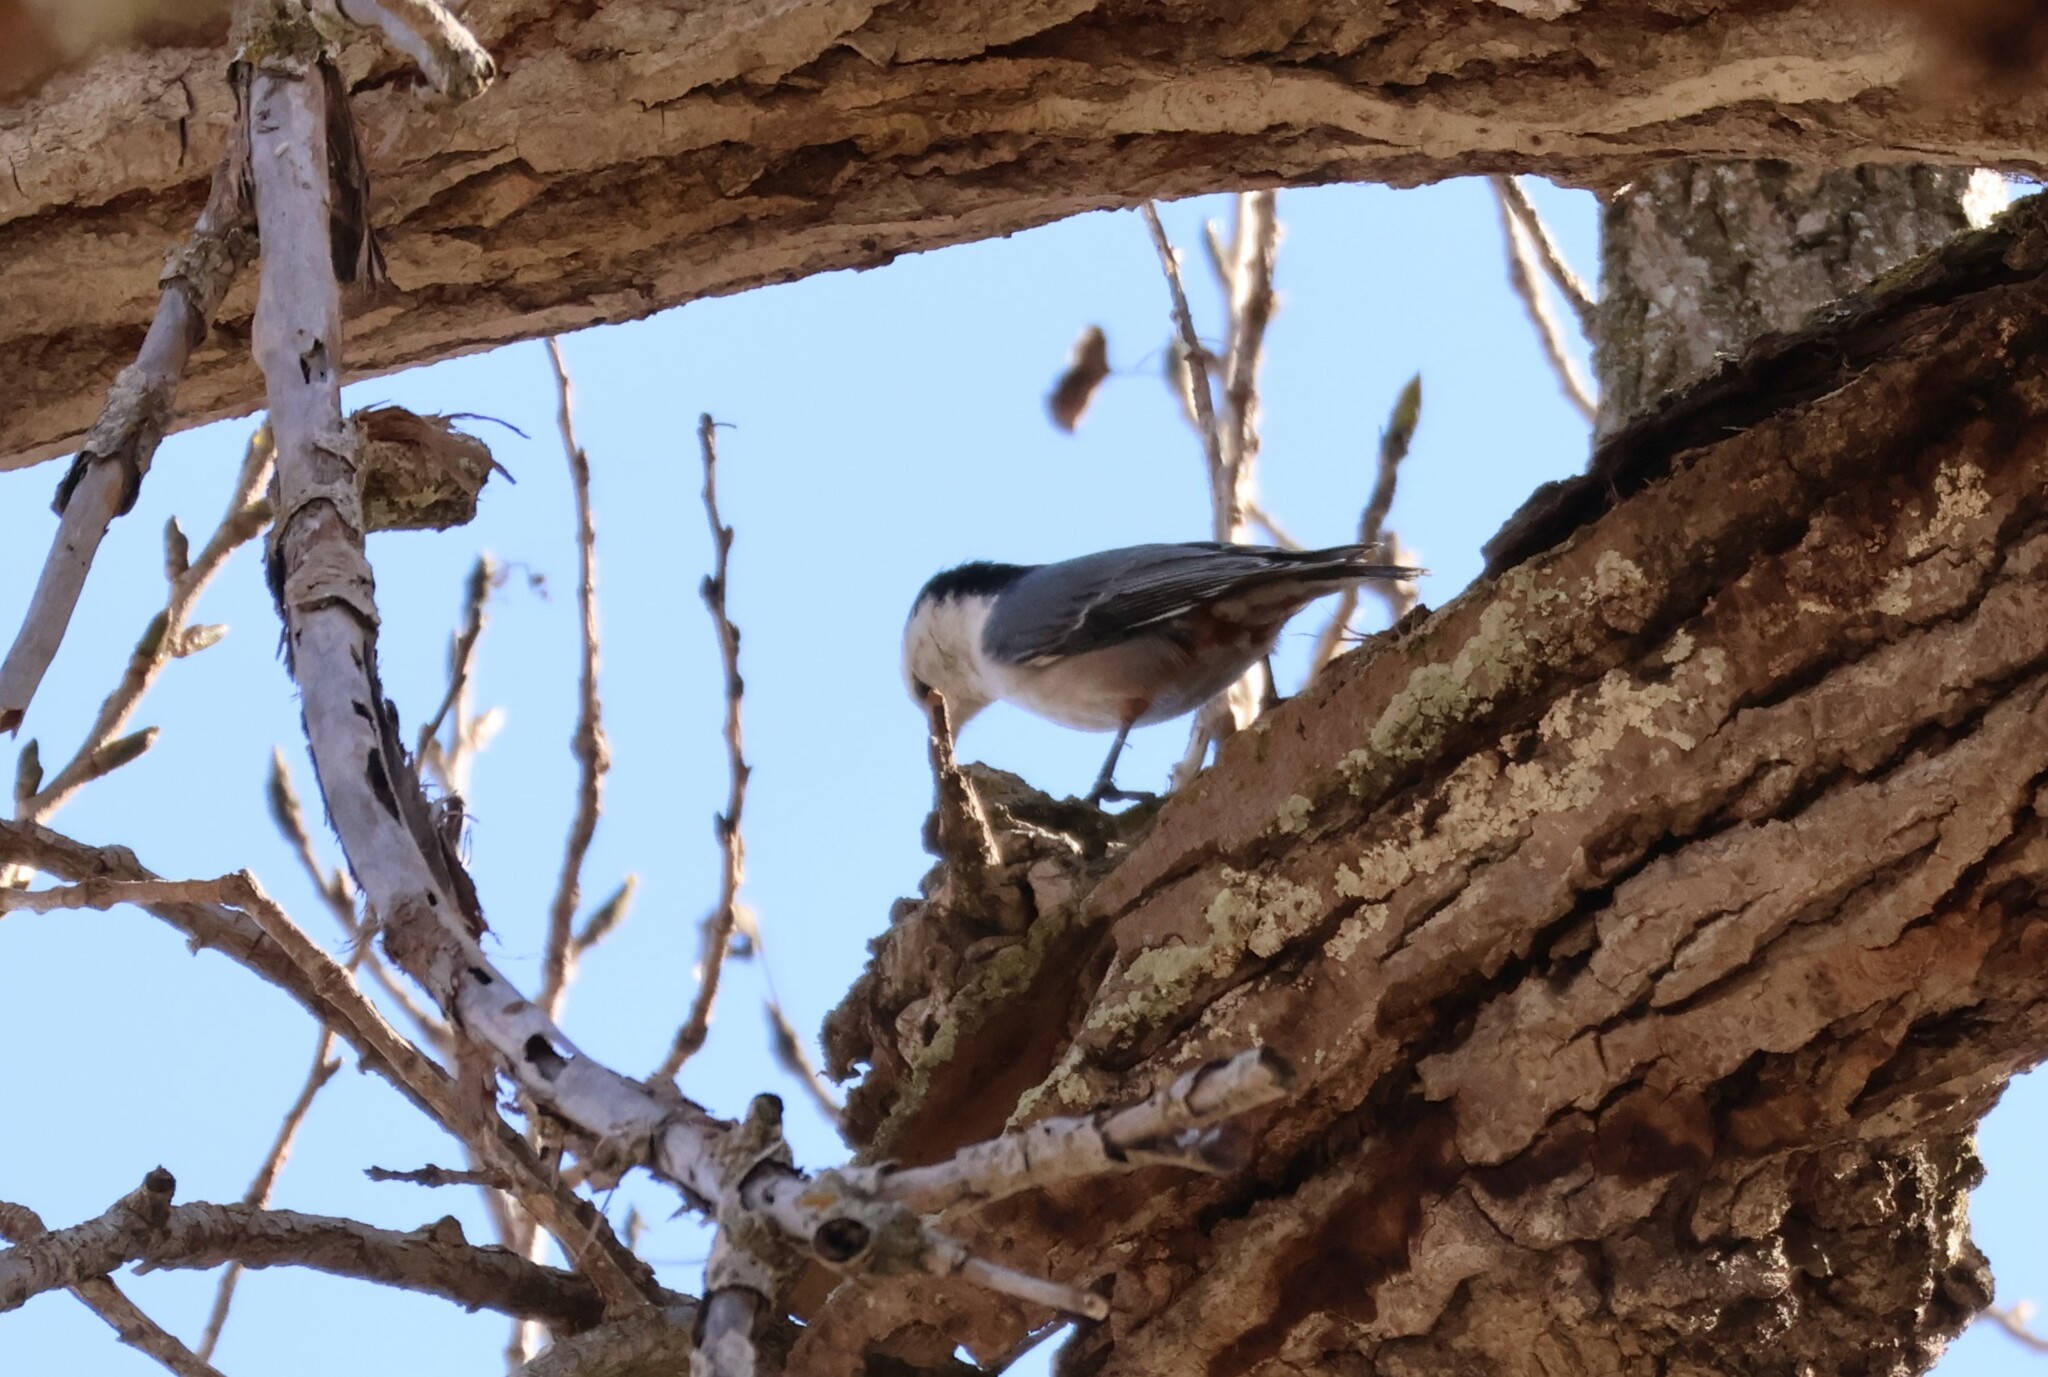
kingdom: Animalia
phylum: Chordata
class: Aves
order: Passeriformes
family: Sittidae
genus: Sitta
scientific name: Sitta carolinensis
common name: White-breasted nuthatch
